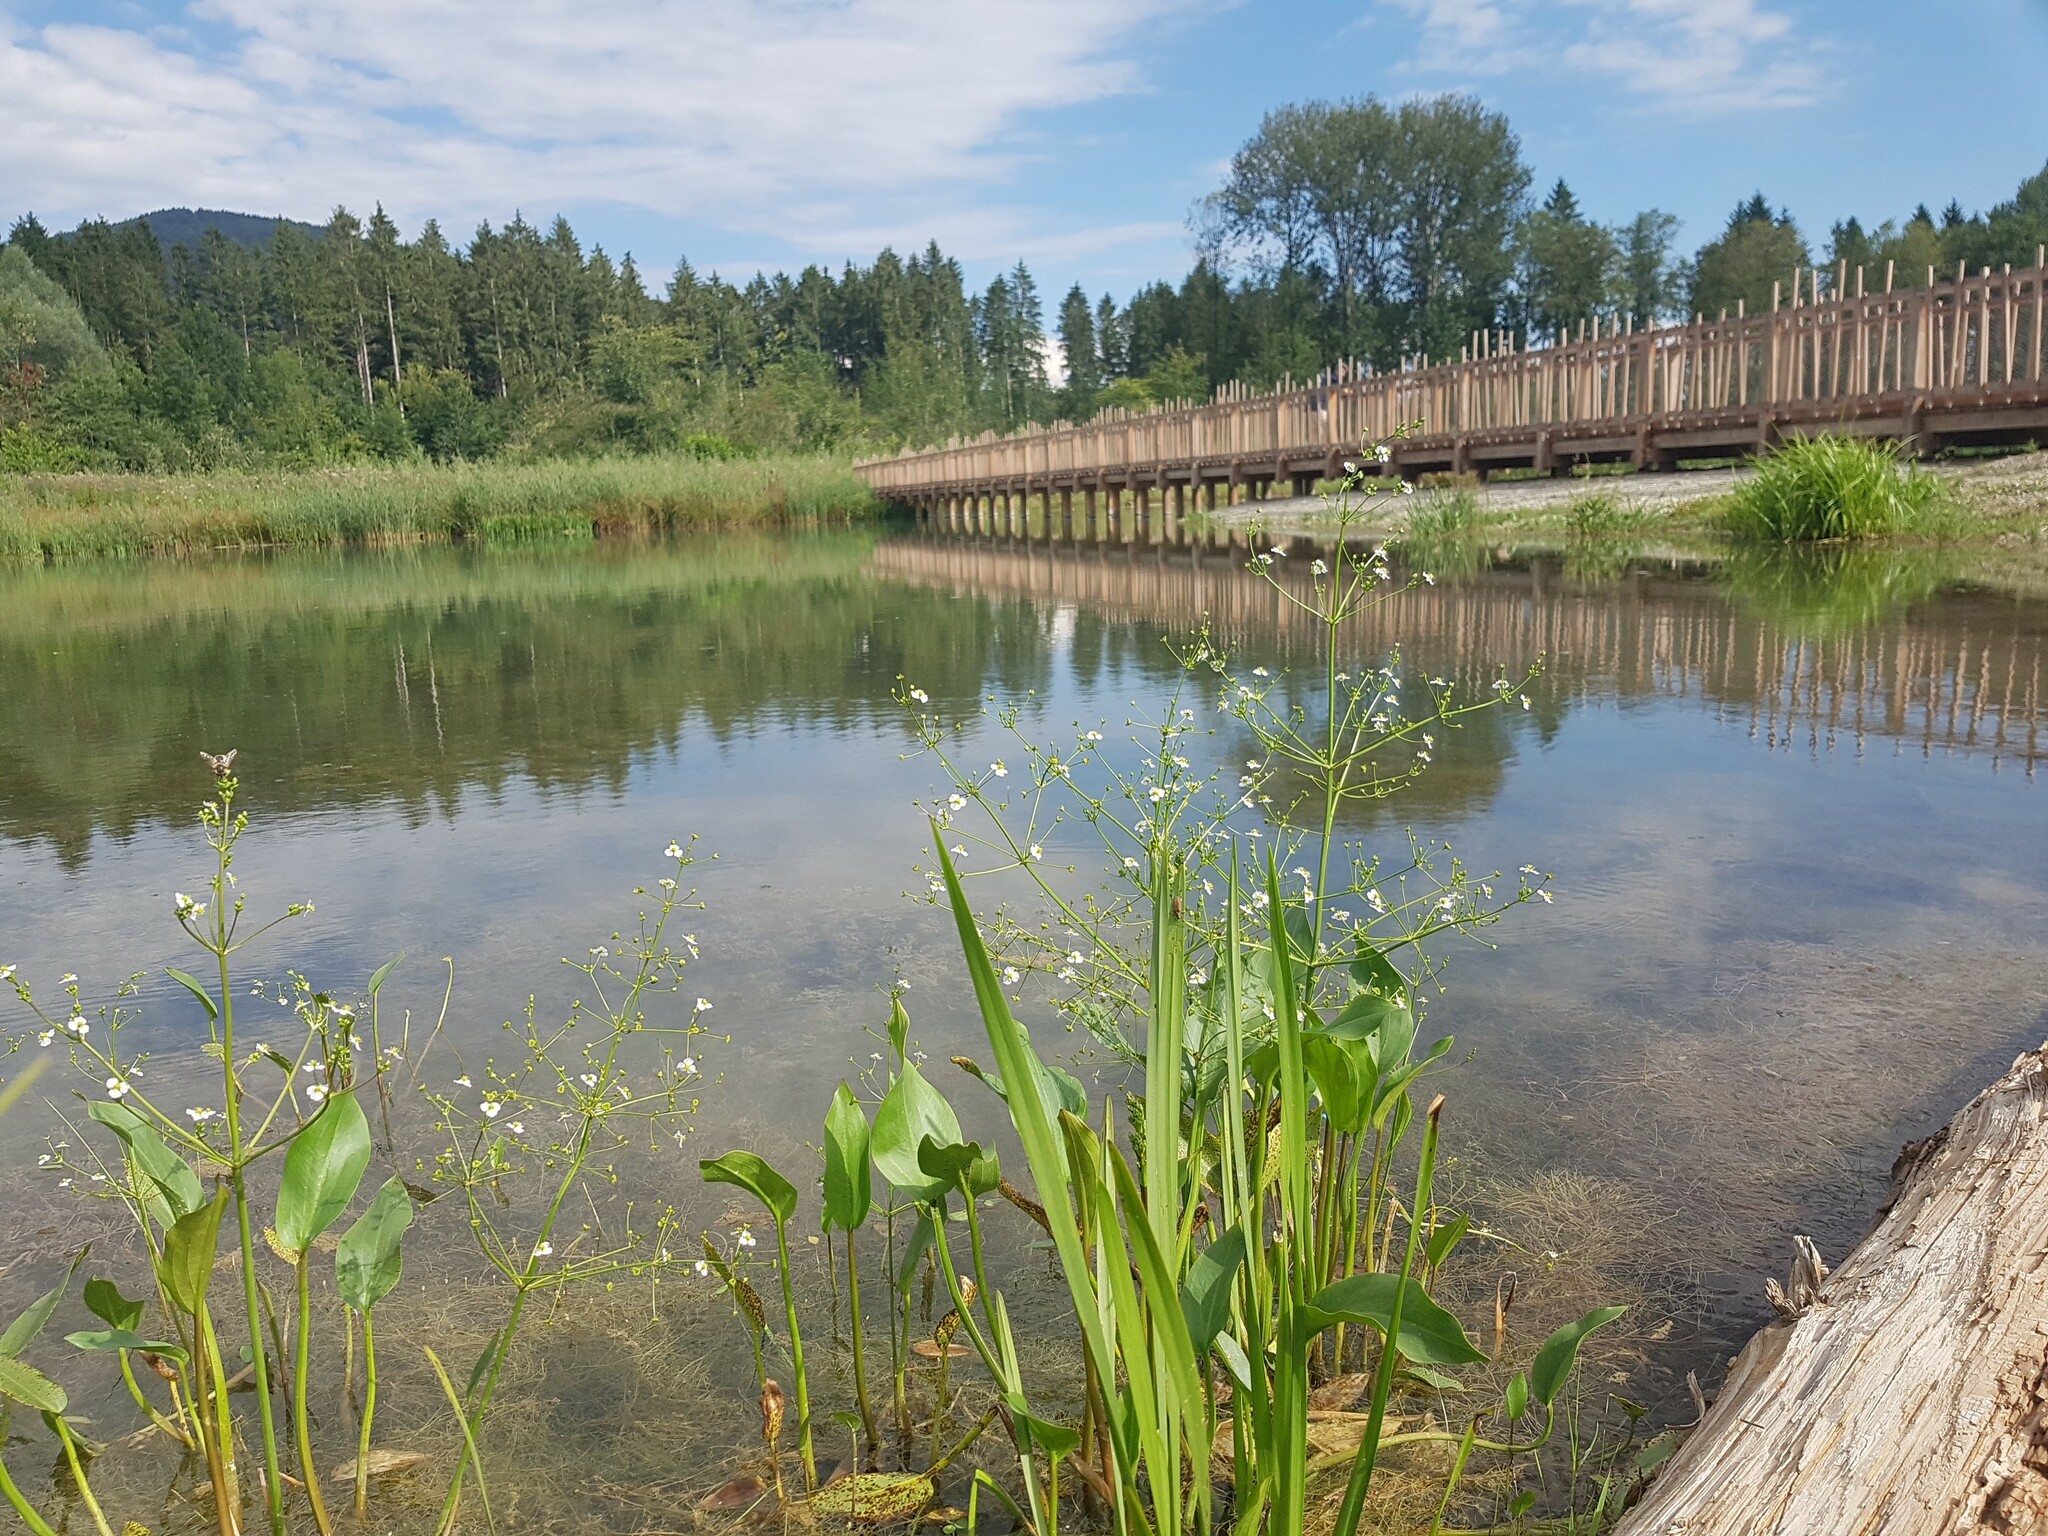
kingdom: Plantae
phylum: Tracheophyta
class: Liliopsida
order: Alismatales
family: Alismataceae
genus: Alisma
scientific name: Alisma plantago-aquatica
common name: Water-plantain
